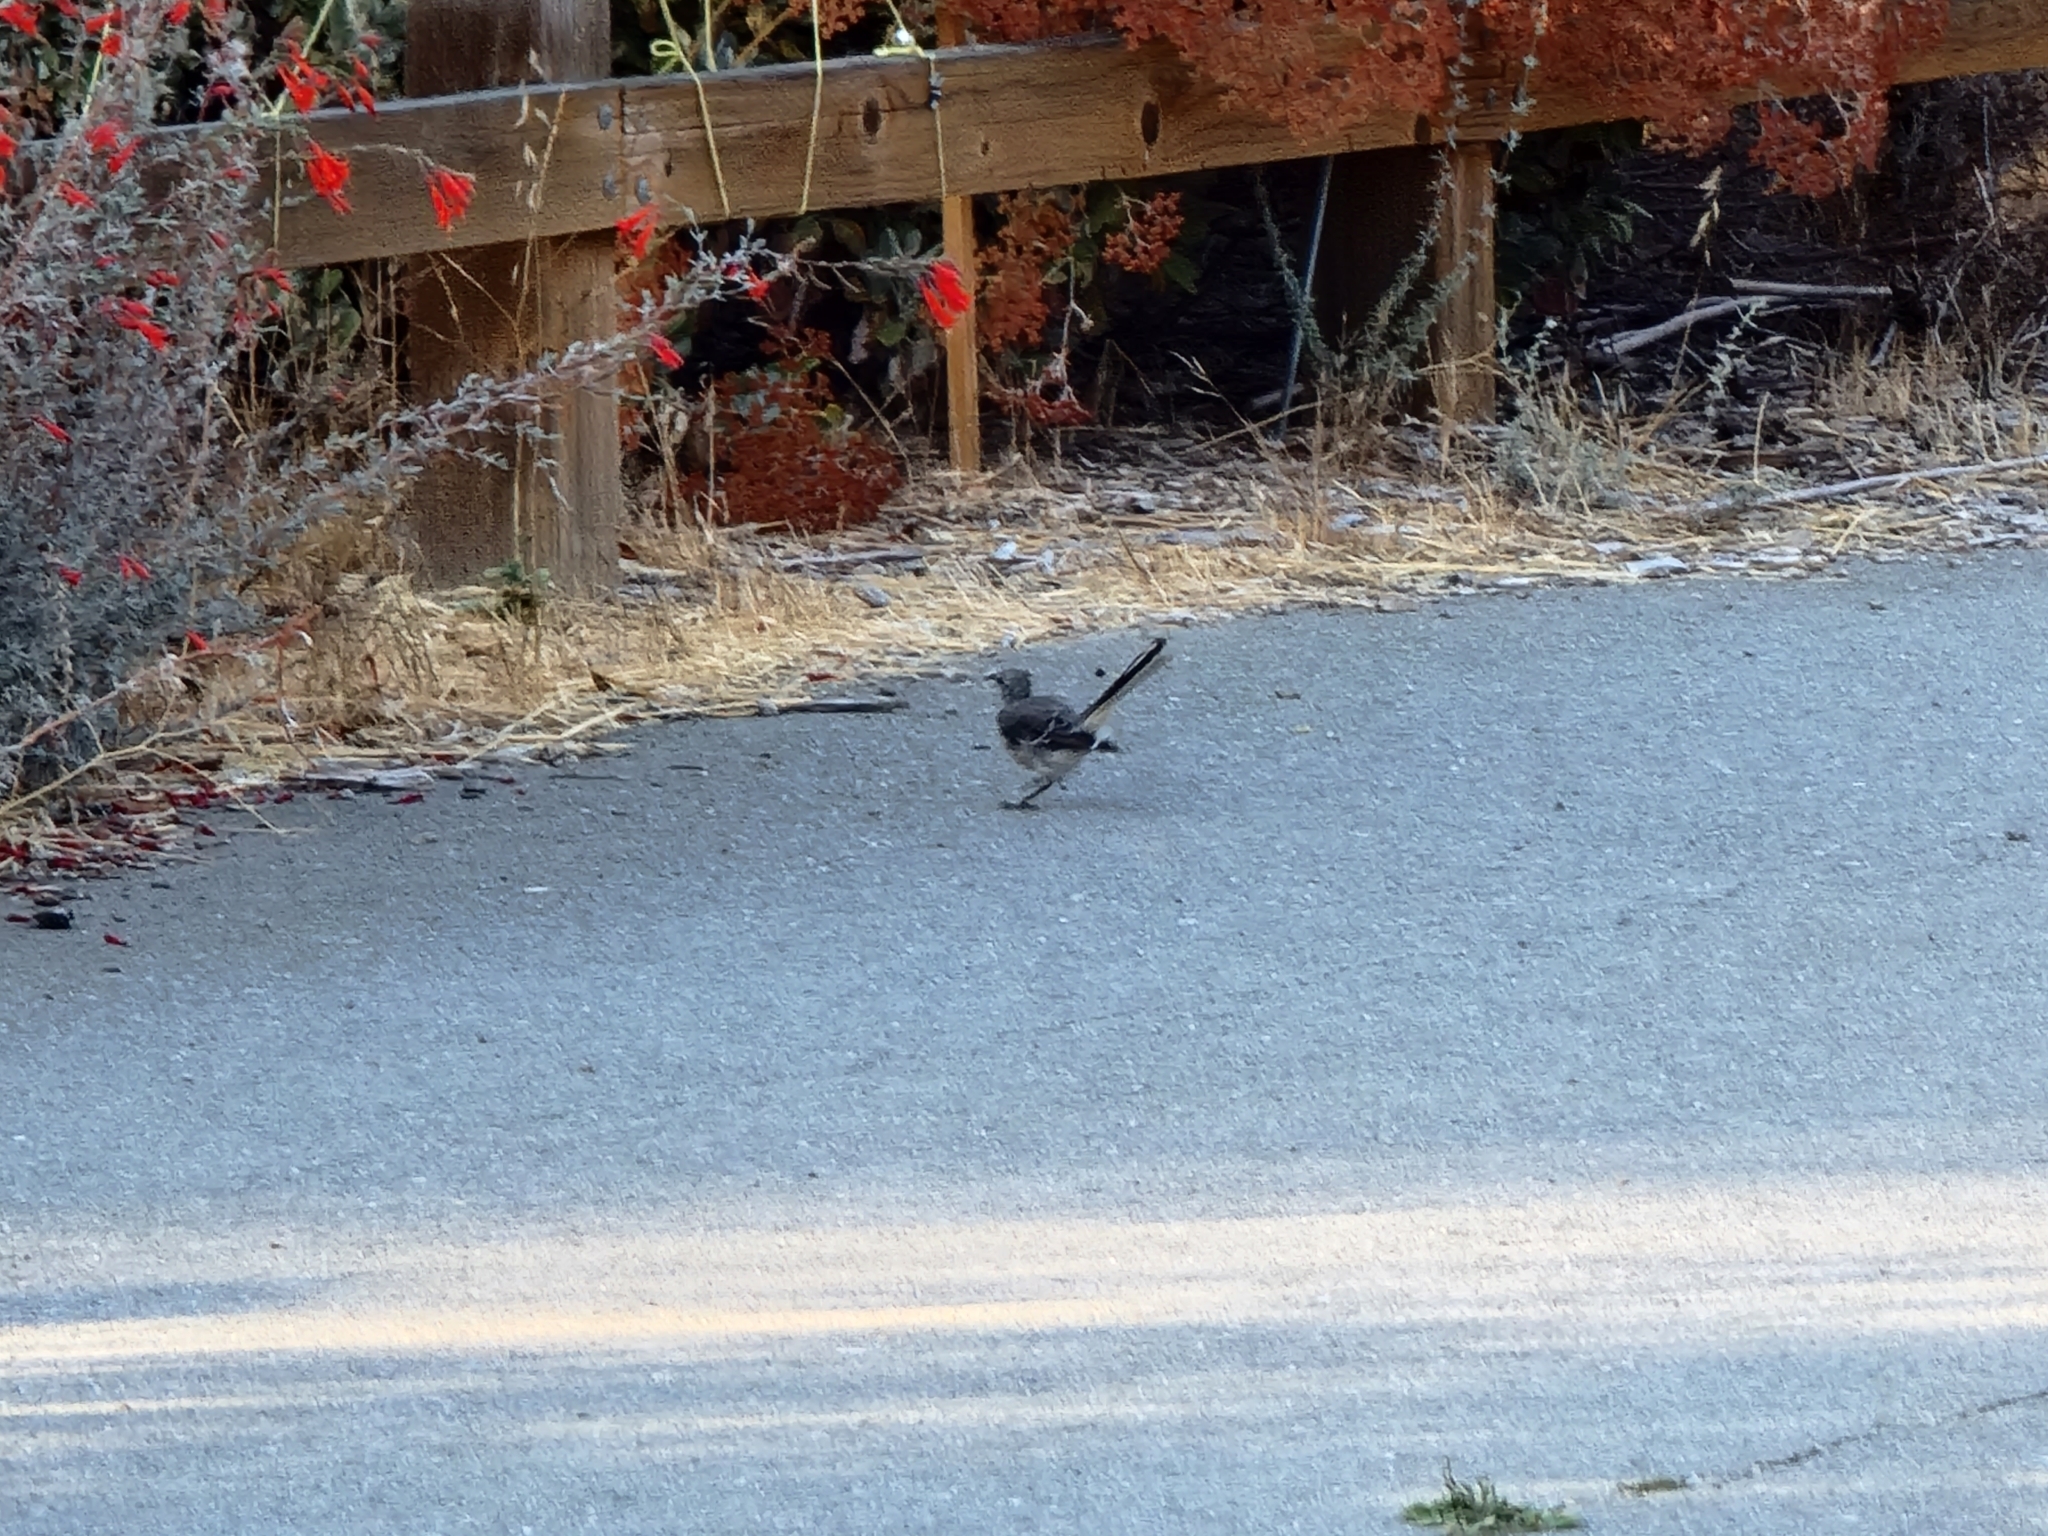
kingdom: Animalia
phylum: Chordata
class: Aves
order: Passeriformes
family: Mimidae
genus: Mimus
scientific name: Mimus polyglottos
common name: Northern mockingbird
